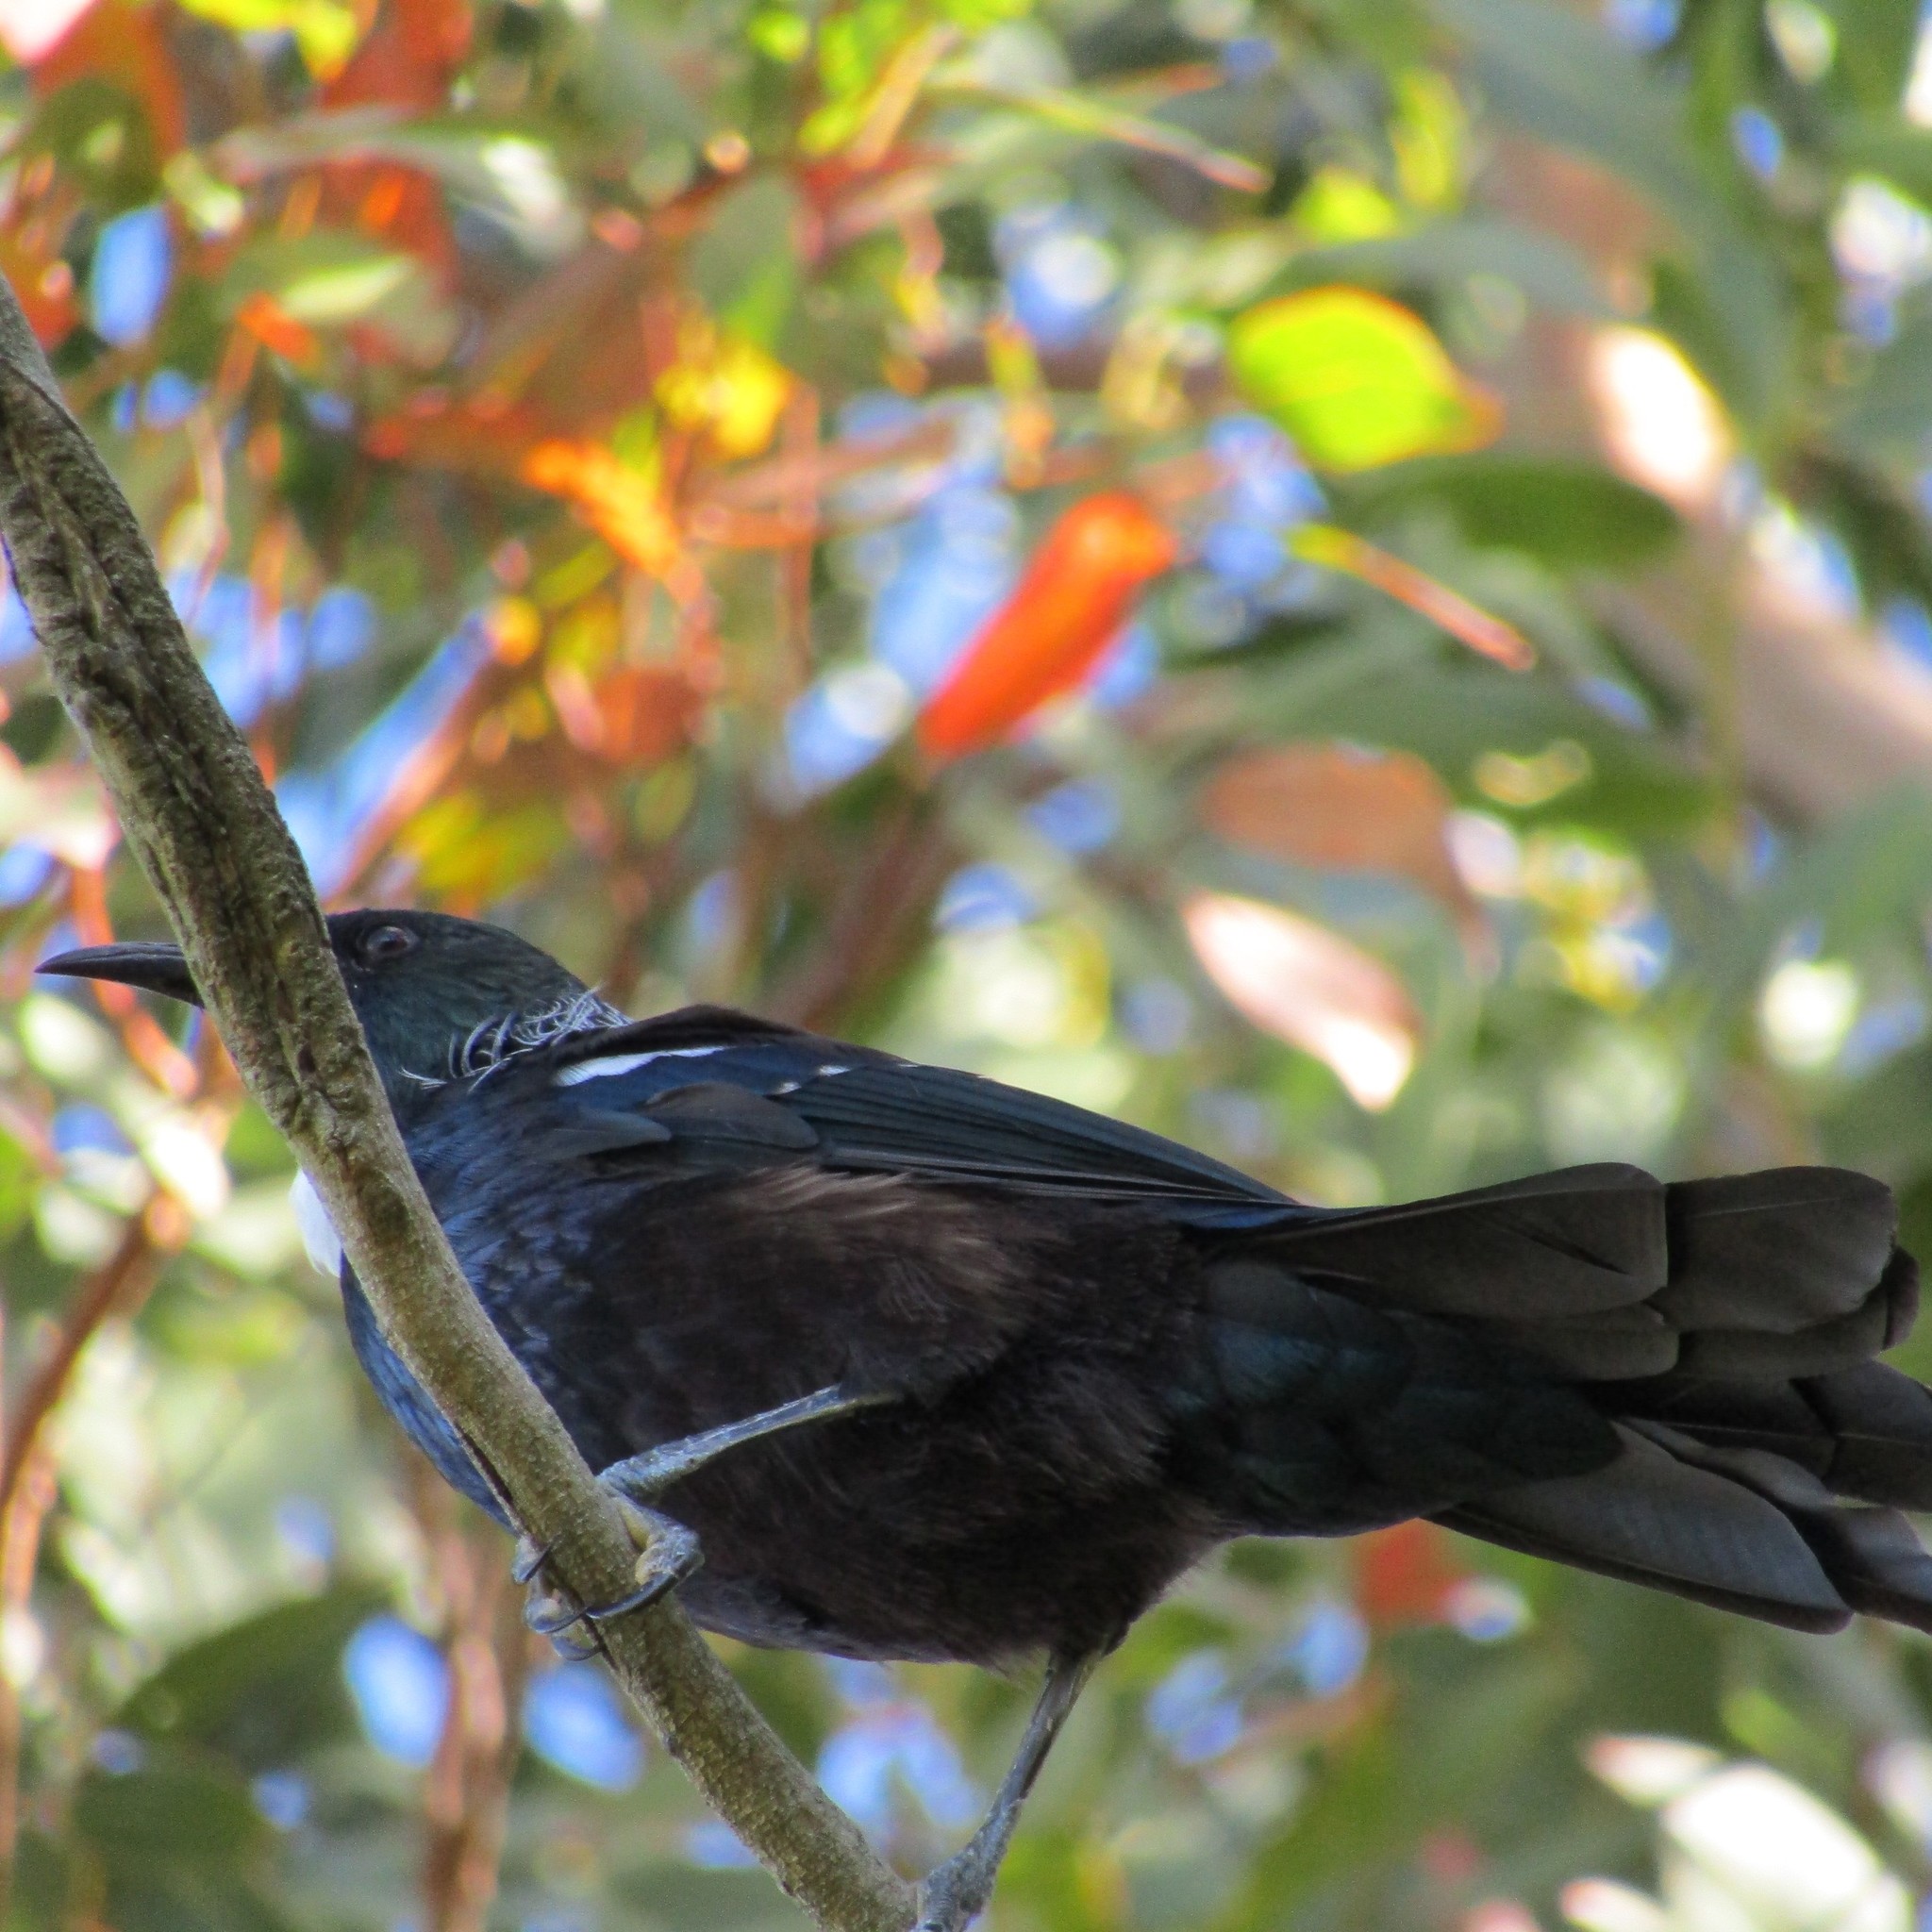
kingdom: Animalia
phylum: Chordata
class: Aves
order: Passeriformes
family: Meliphagidae
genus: Prosthemadera
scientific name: Prosthemadera novaeseelandiae
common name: Tui
